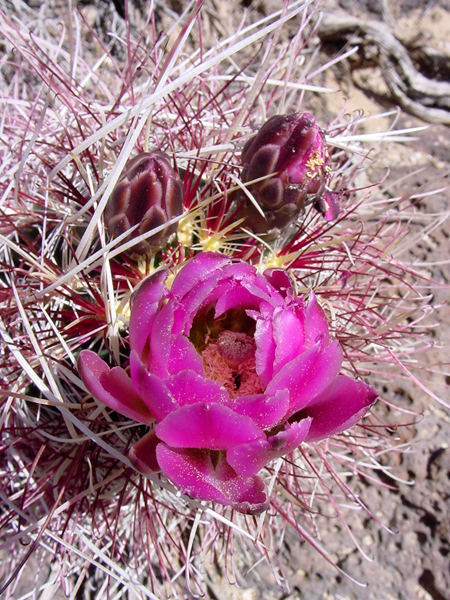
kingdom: Plantae
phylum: Tracheophyta
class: Magnoliopsida
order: Caryophyllales
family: Cactaceae
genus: Sclerocactus
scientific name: Sclerocactus polyancistrus
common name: Mohave fishhook cactus
